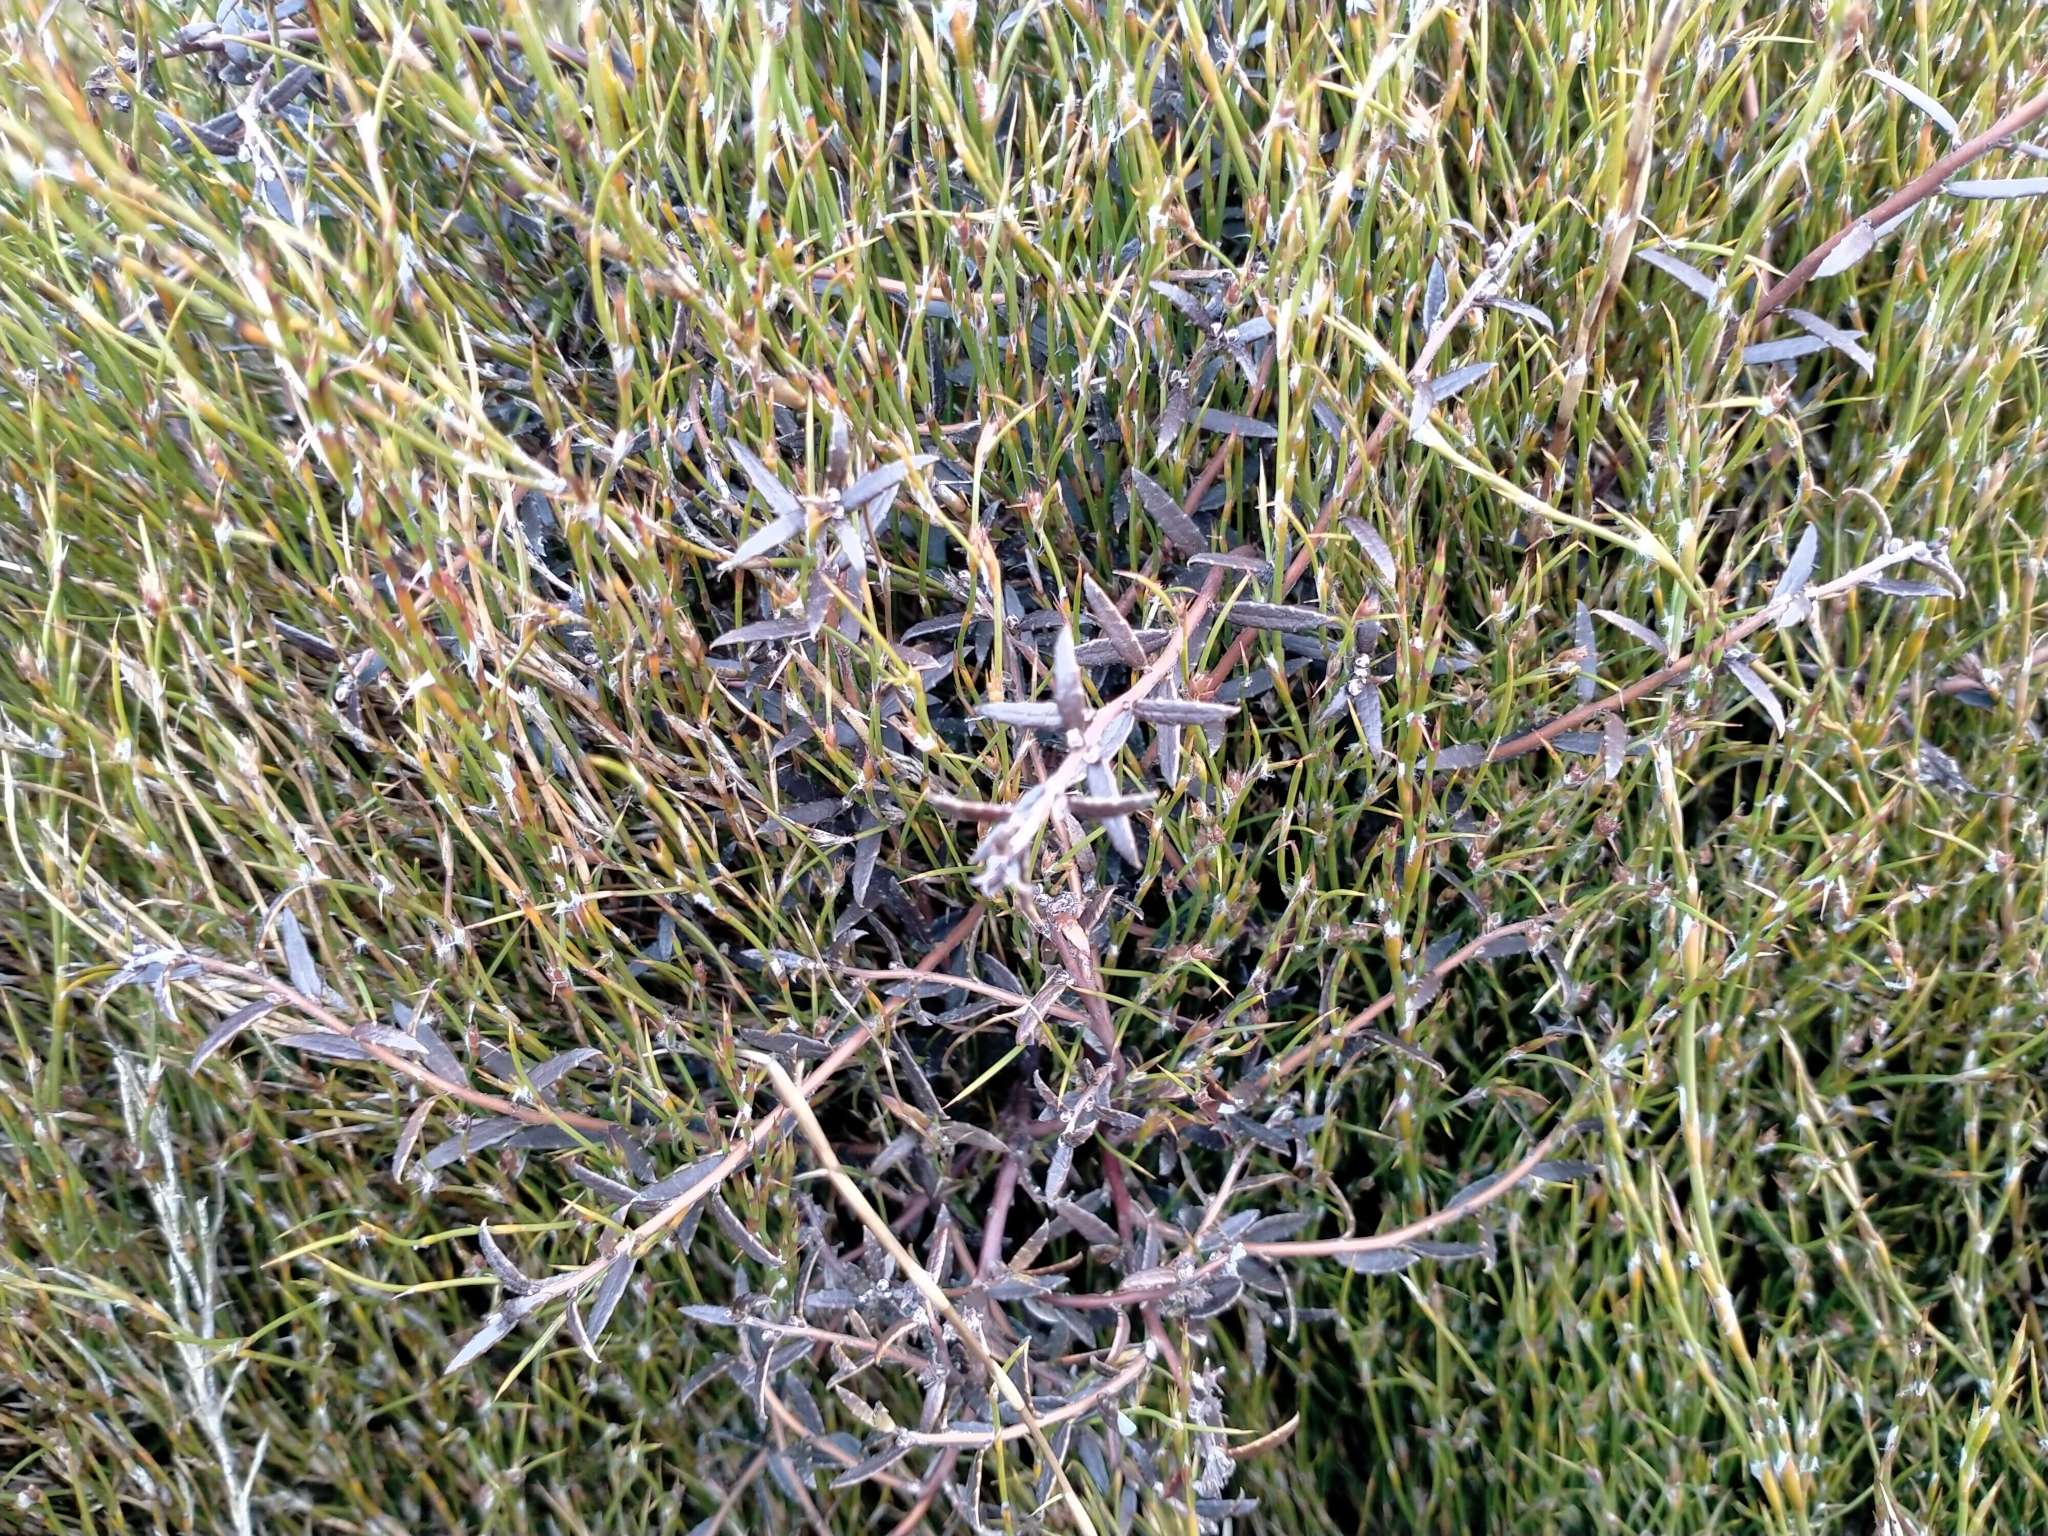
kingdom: Plantae
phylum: Tracheophyta
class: Magnoliopsida
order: Ericales
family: Ericaceae
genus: Gaultheria
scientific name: Gaultheria macrostigma
